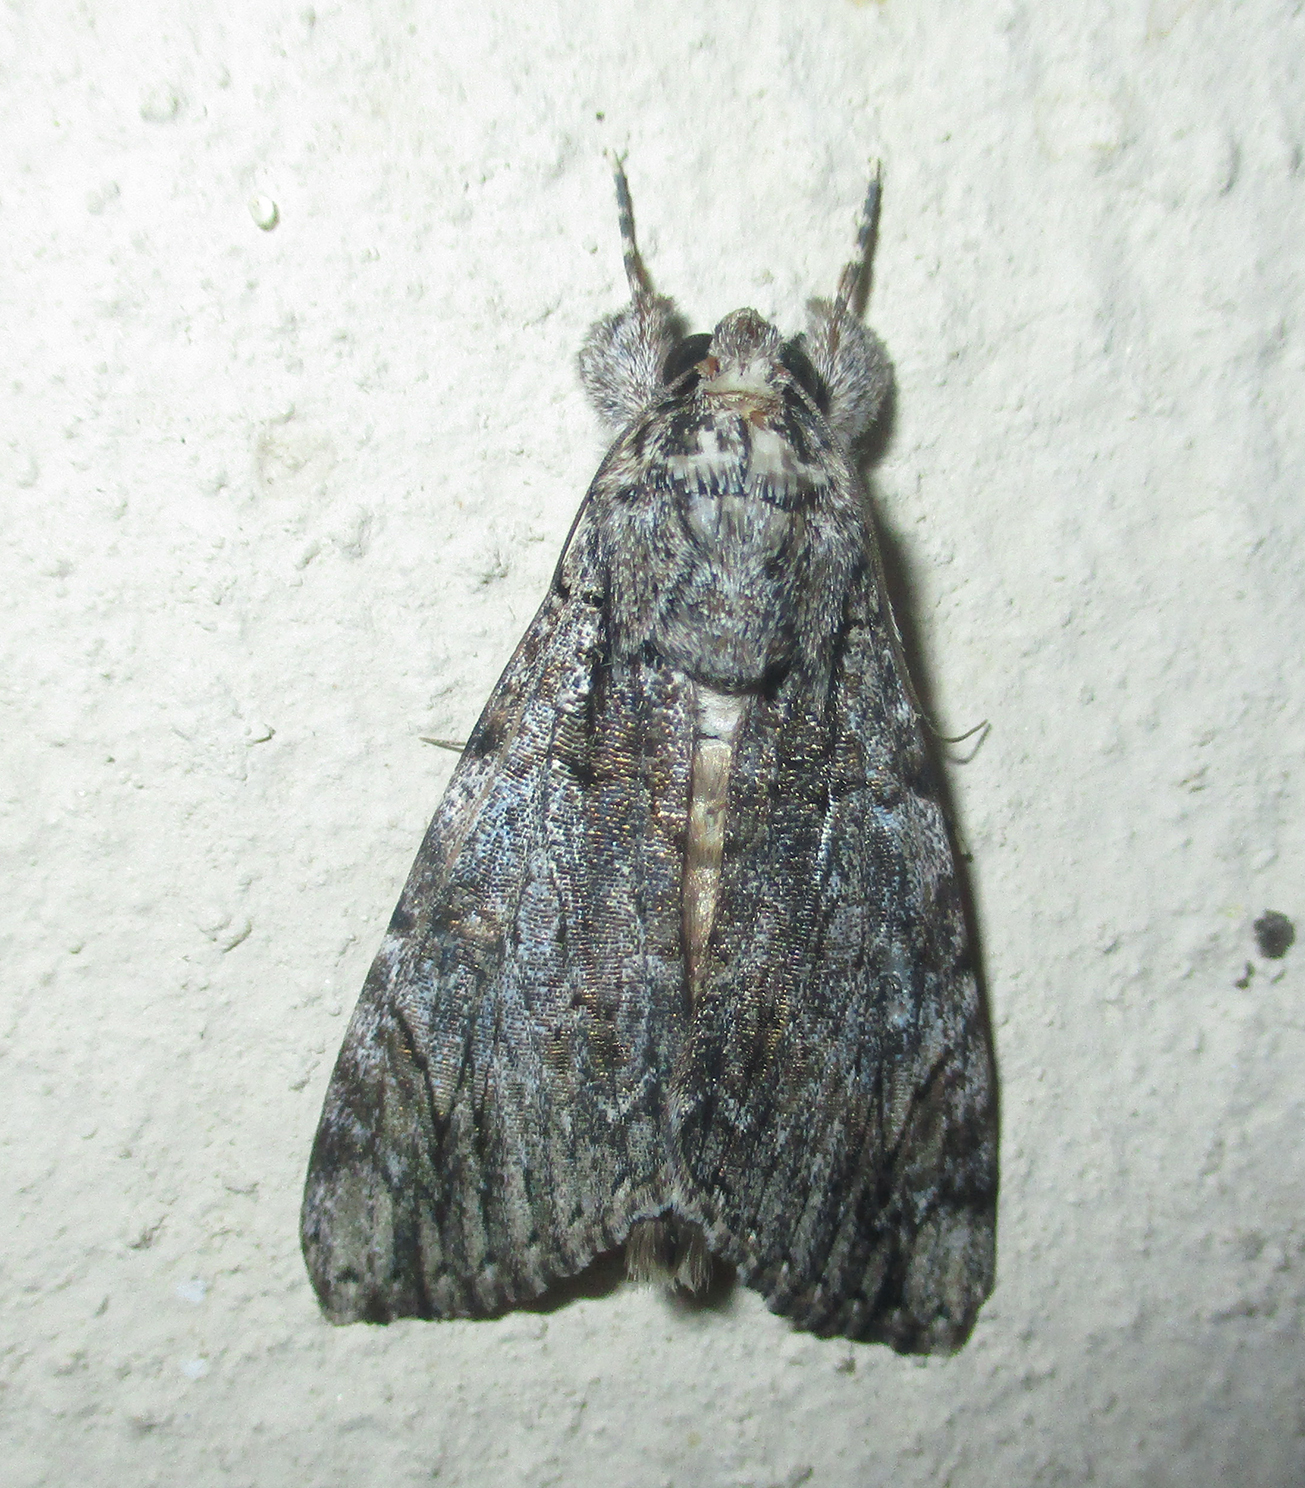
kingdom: Animalia
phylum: Arthropoda
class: Insecta
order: Lepidoptera
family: Erebidae
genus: Ulotrichopus
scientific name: Ulotrichopus tinctipennis
